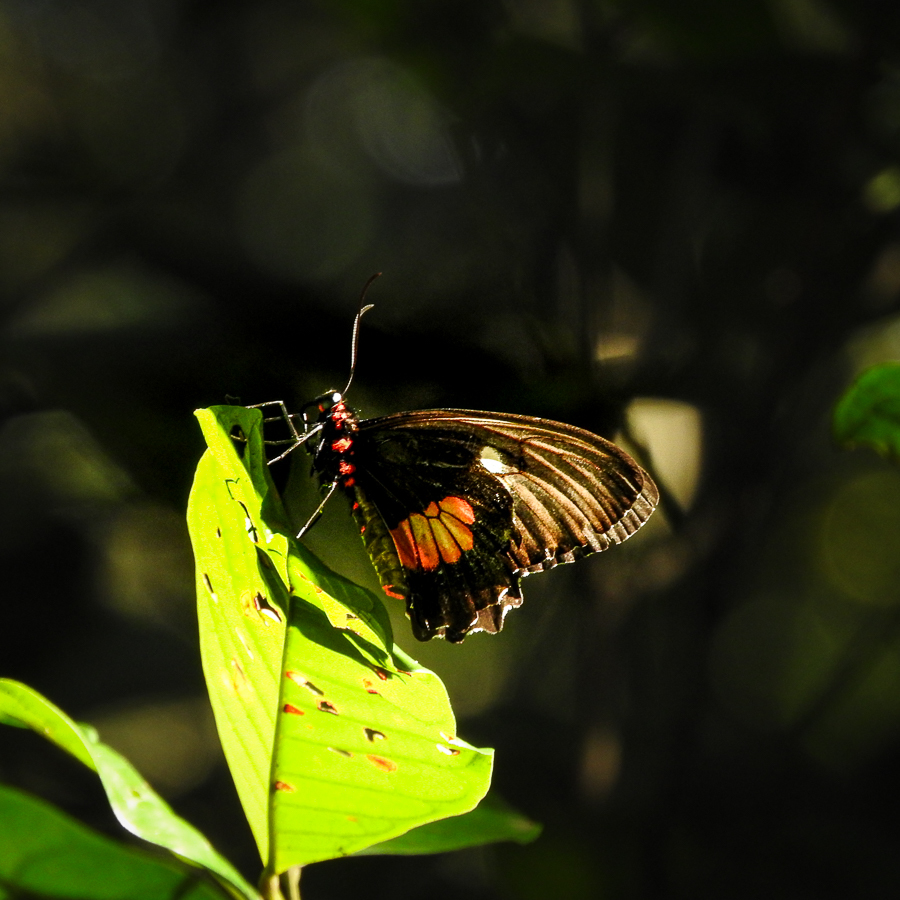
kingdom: Animalia
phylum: Arthropoda
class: Insecta
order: Lepidoptera
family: Papilionidae
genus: Parides
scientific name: Parides anchises
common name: Cattle heart
